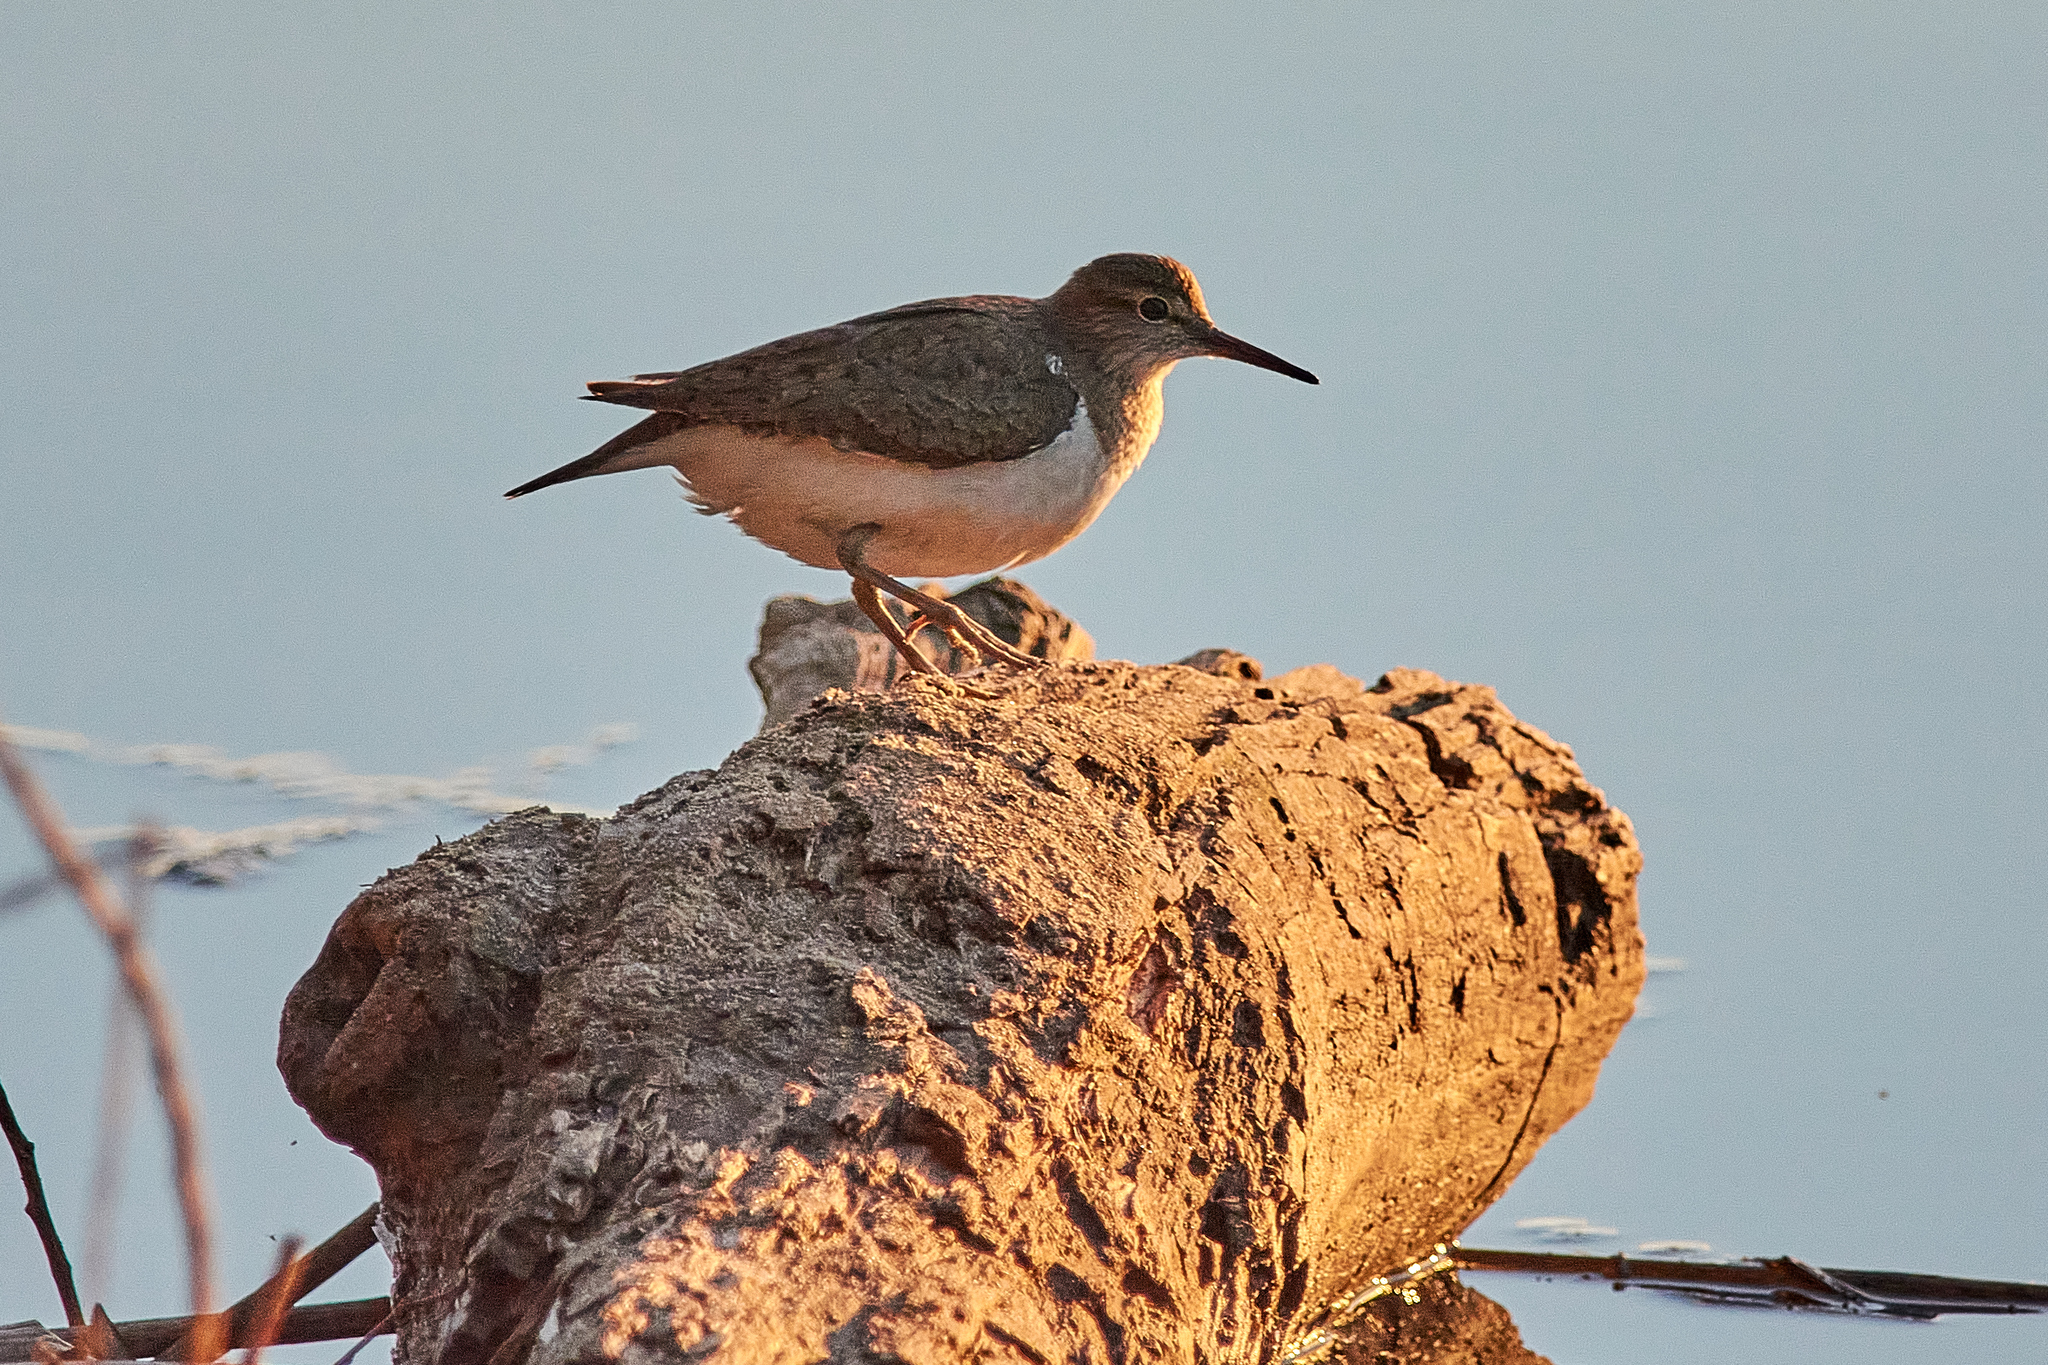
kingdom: Animalia
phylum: Chordata
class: Aves
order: Charadriiformes
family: Scolopacidae
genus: Actitis
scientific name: Actitis hypoleucos
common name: Common sandpiper
